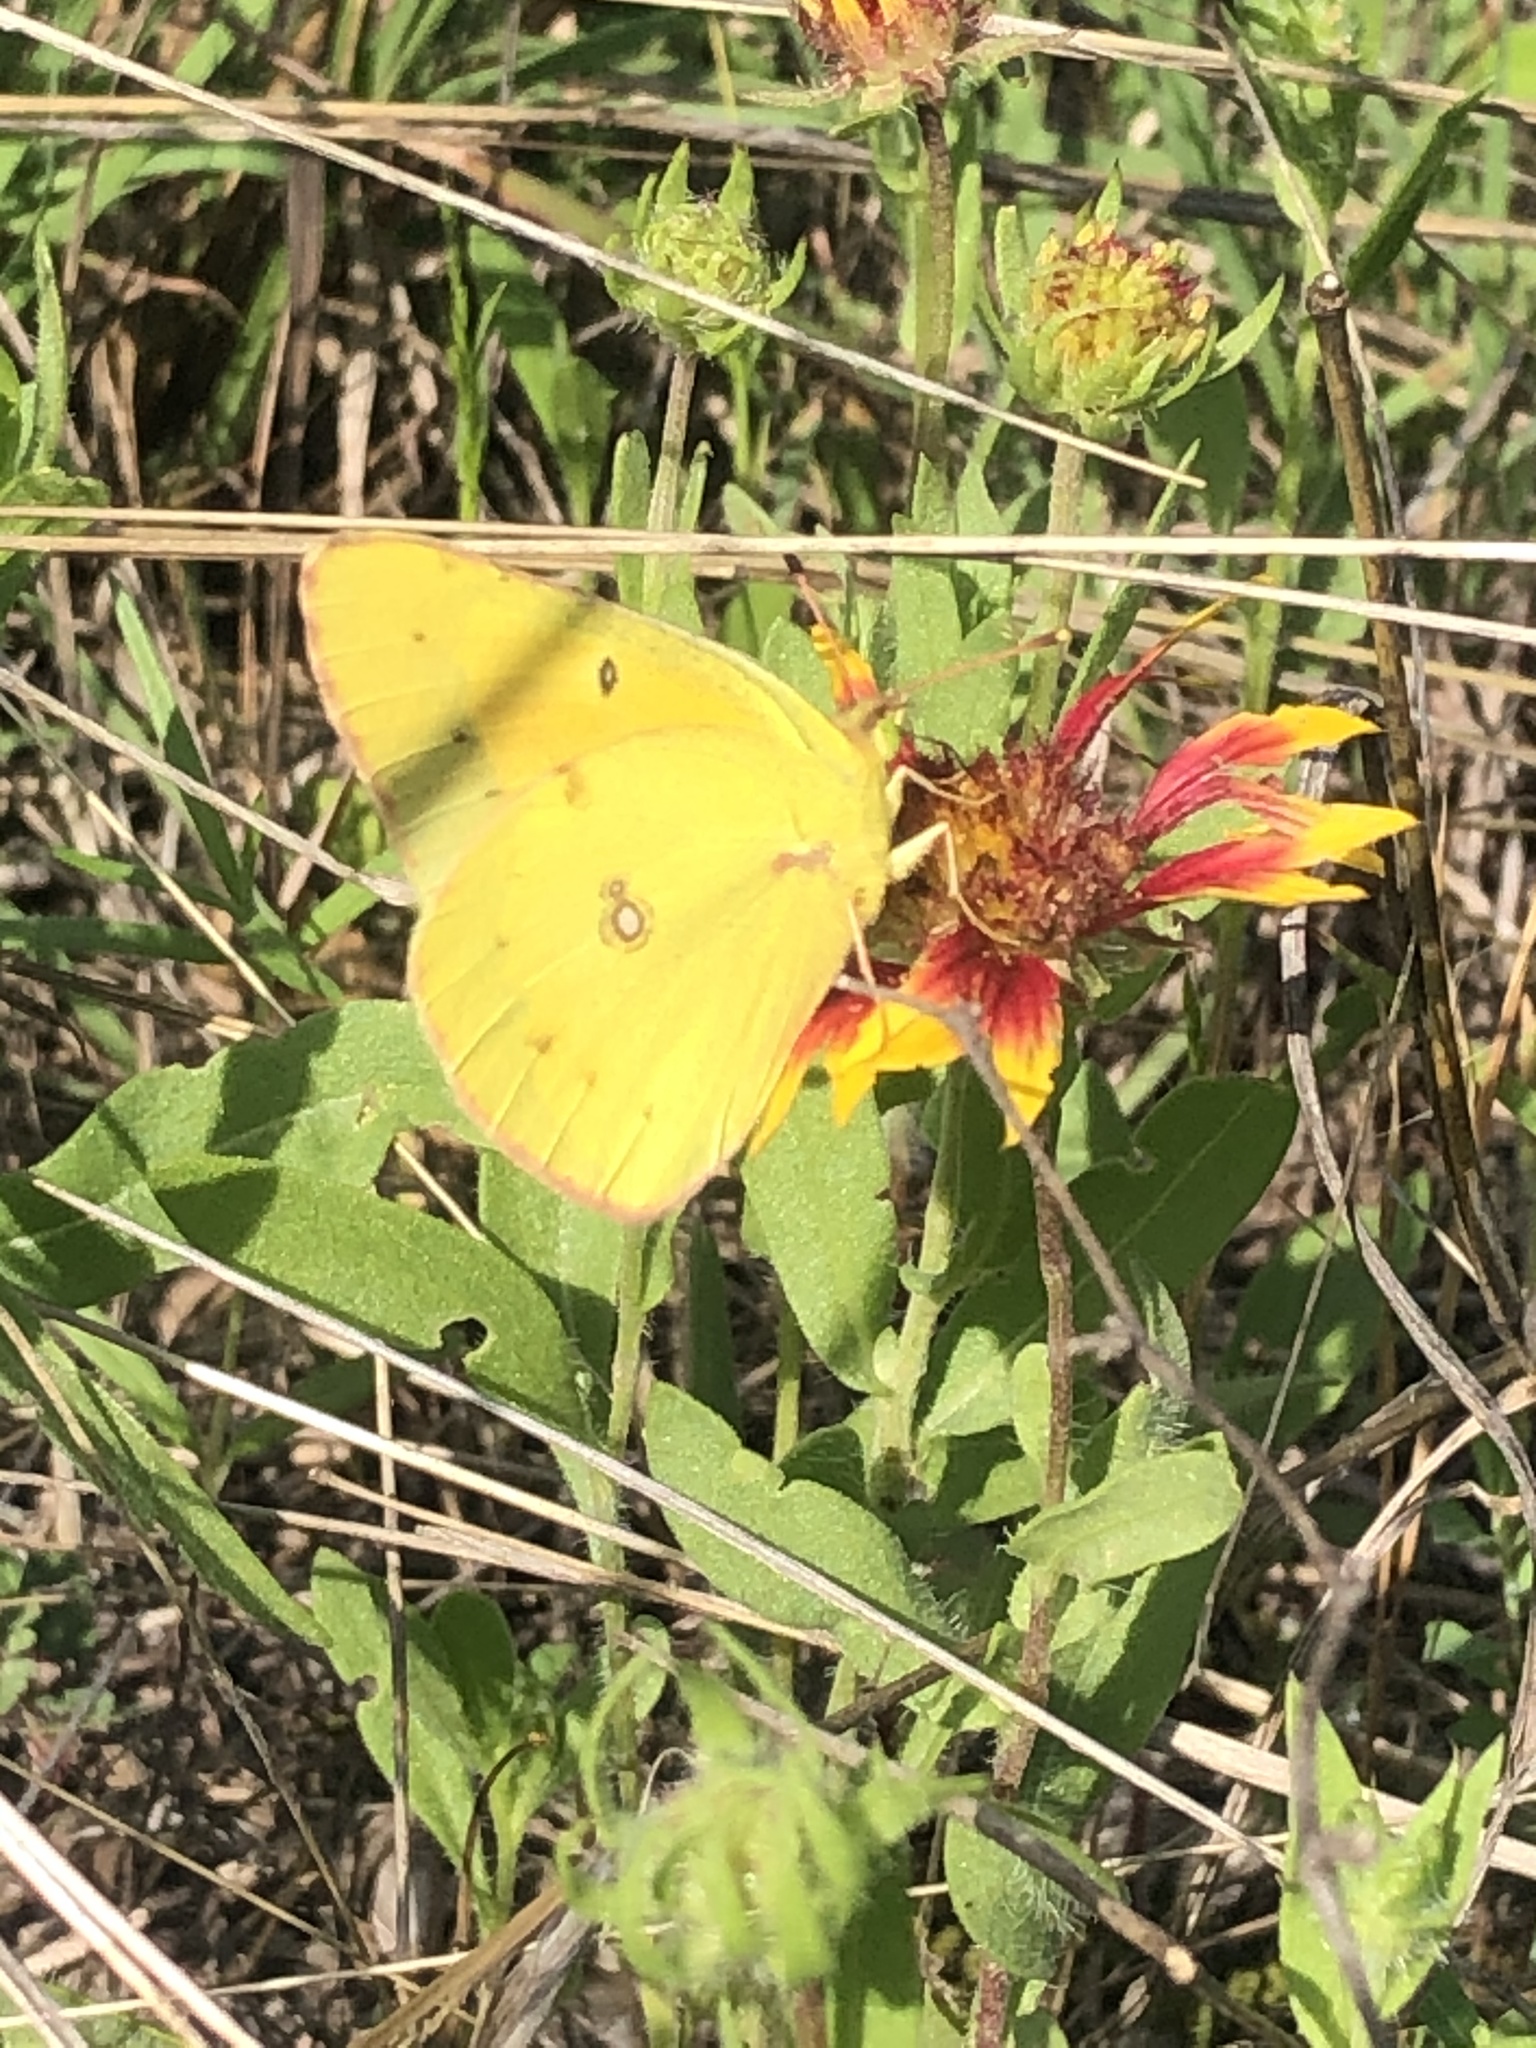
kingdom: Animalia
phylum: Arthropoda
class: Insecta
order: Lepidoptera
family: Pieridae
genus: Colias
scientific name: Colias eurytheme
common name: Alfalfa butterfly
